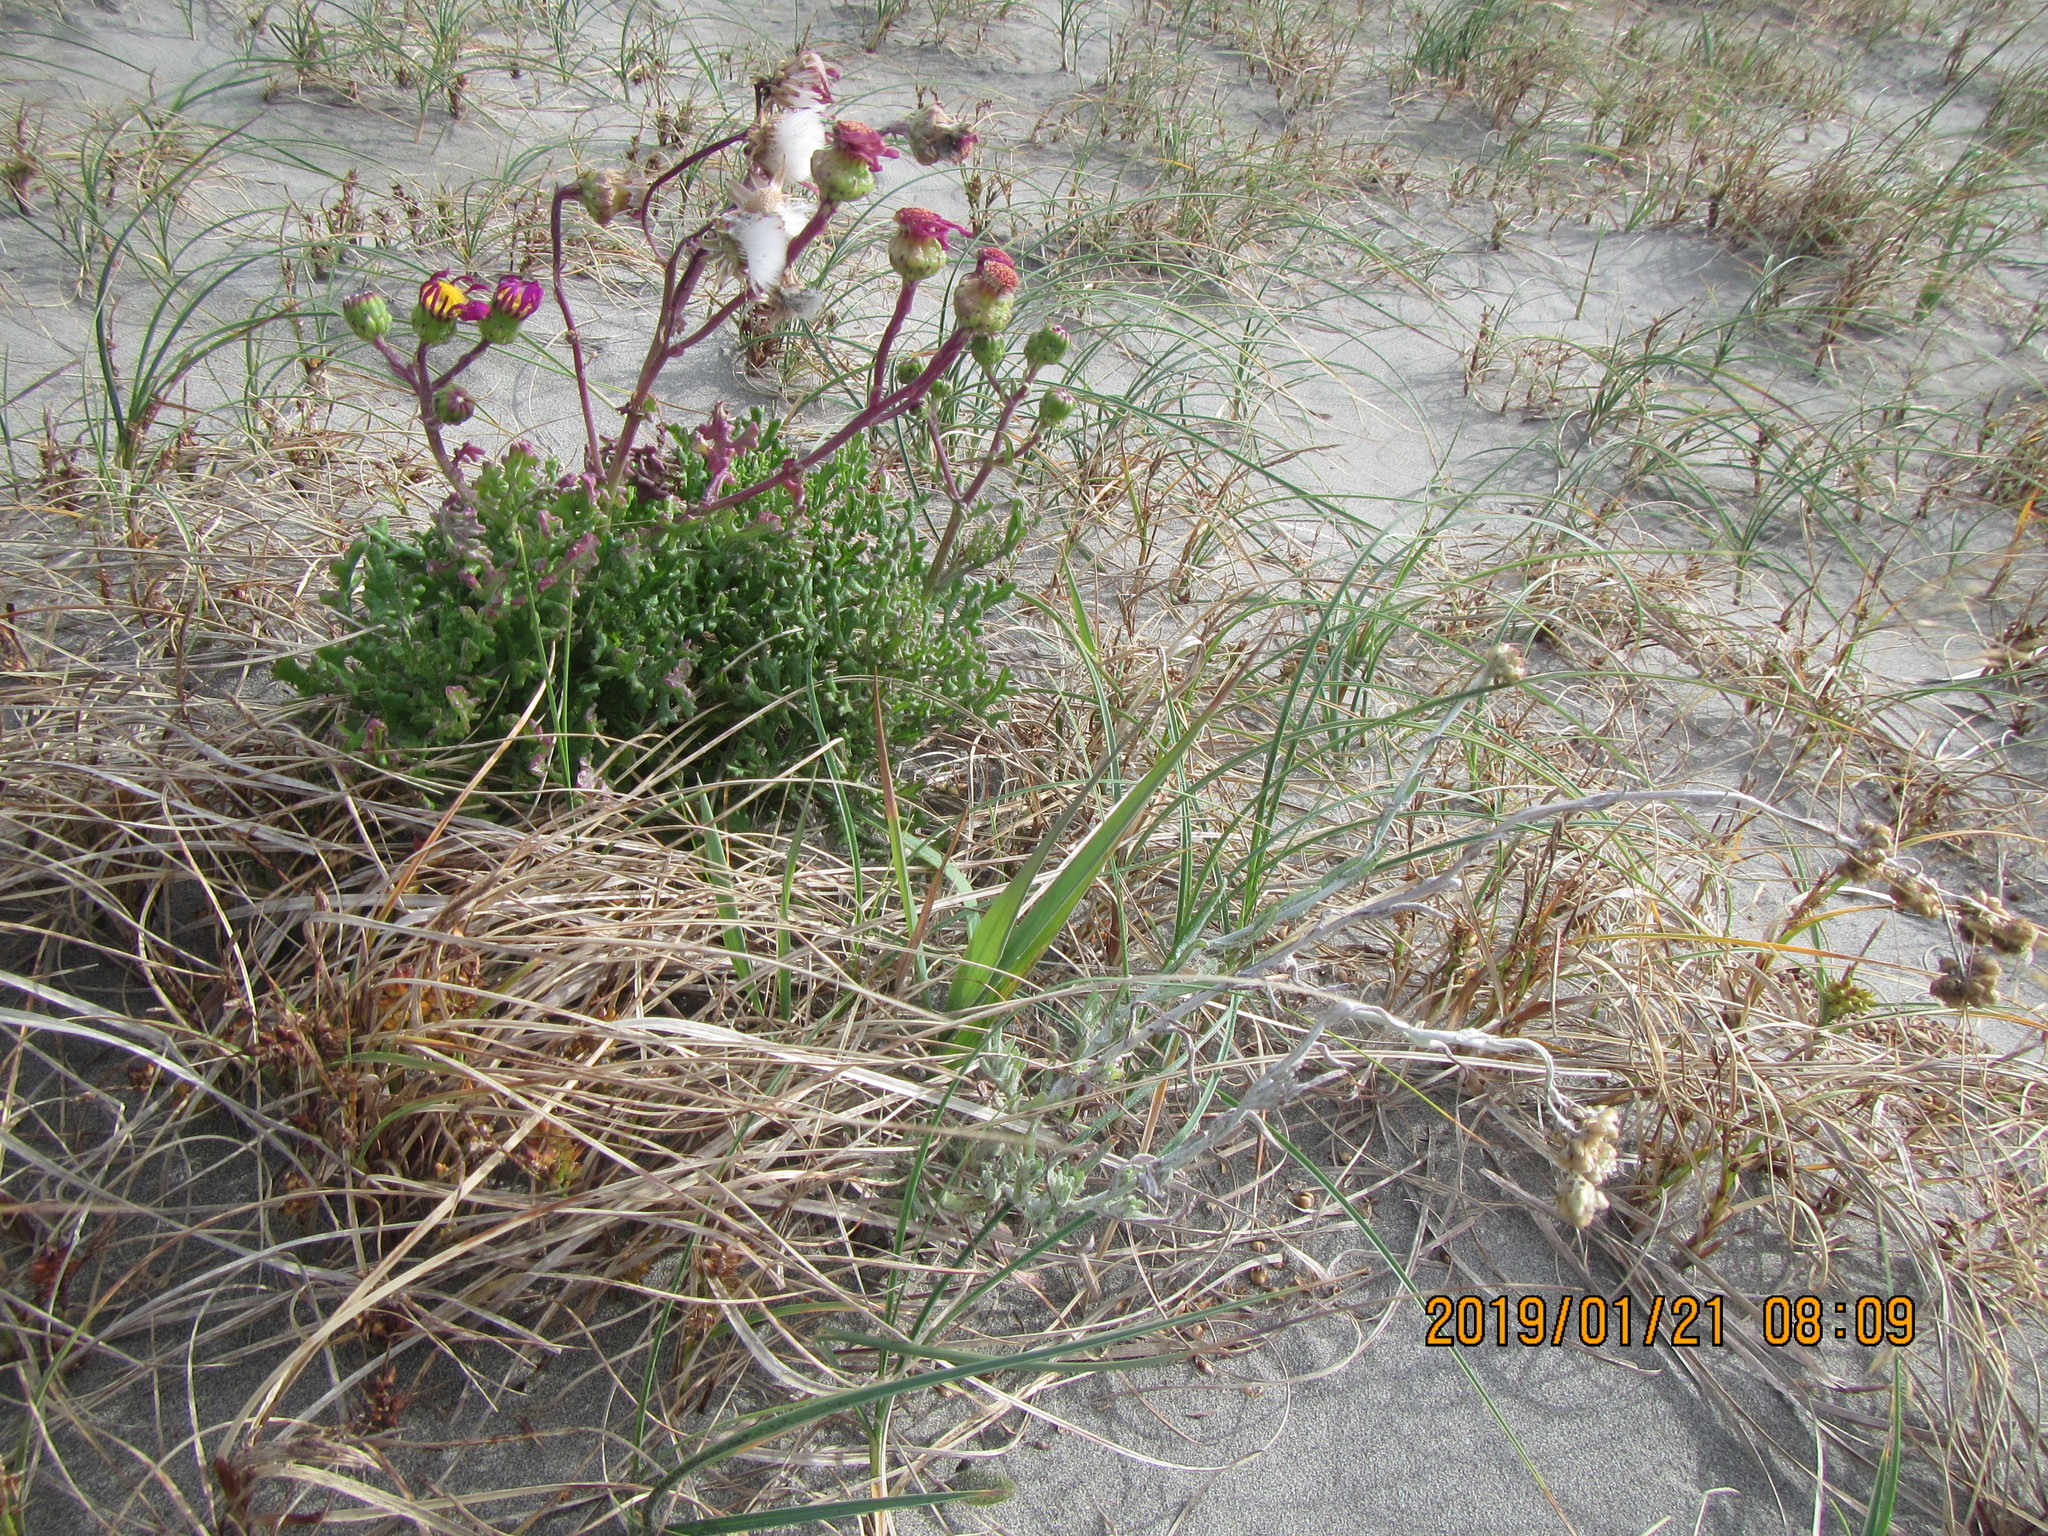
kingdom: Plantae
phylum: Tracheophyta
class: Magnoliopsida
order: Asterales
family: Asteraceae
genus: Senecio
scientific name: Senecio elegans
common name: Purple groundsel
